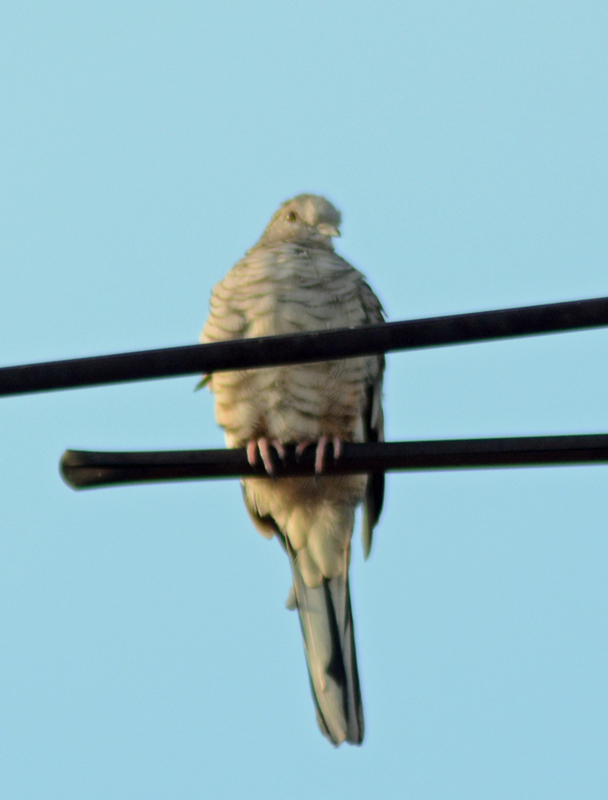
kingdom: Animalia
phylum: Chordata
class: Aves
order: Columbiformes
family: Columbidae
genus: Columbina
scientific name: Columbina inca
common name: Inca dove
